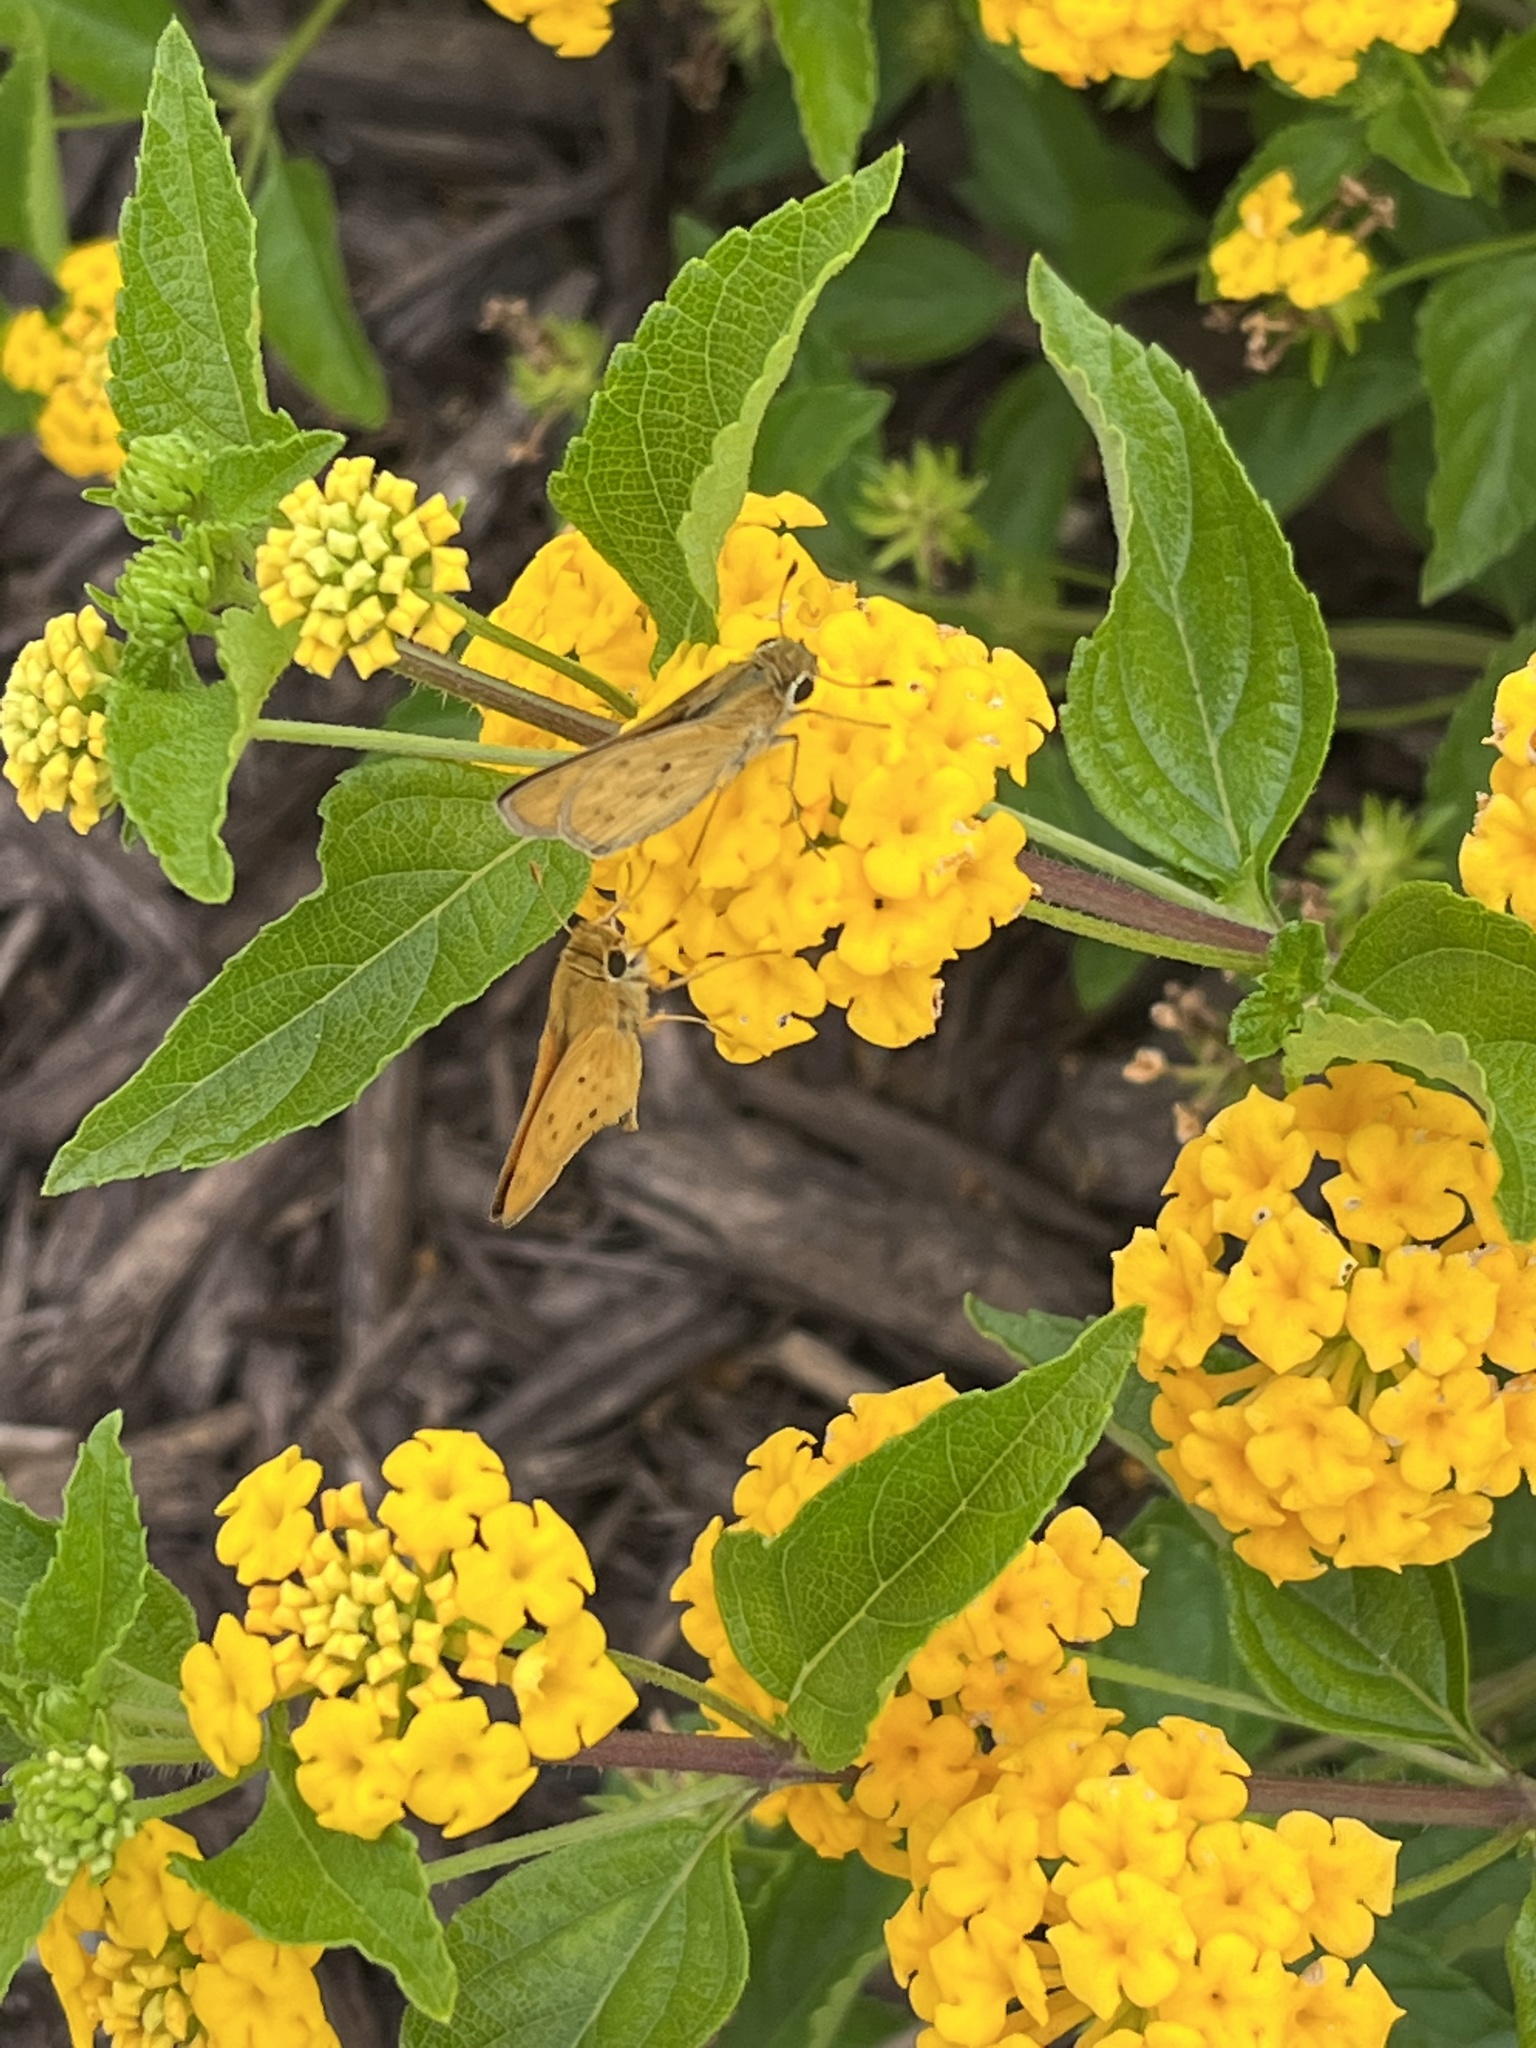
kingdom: Animalia
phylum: Arthropoda
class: Insecta
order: Lepidoptera
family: Hesperiidae
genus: Hylephila
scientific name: Hylephila phyleus
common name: Fiery skipper
